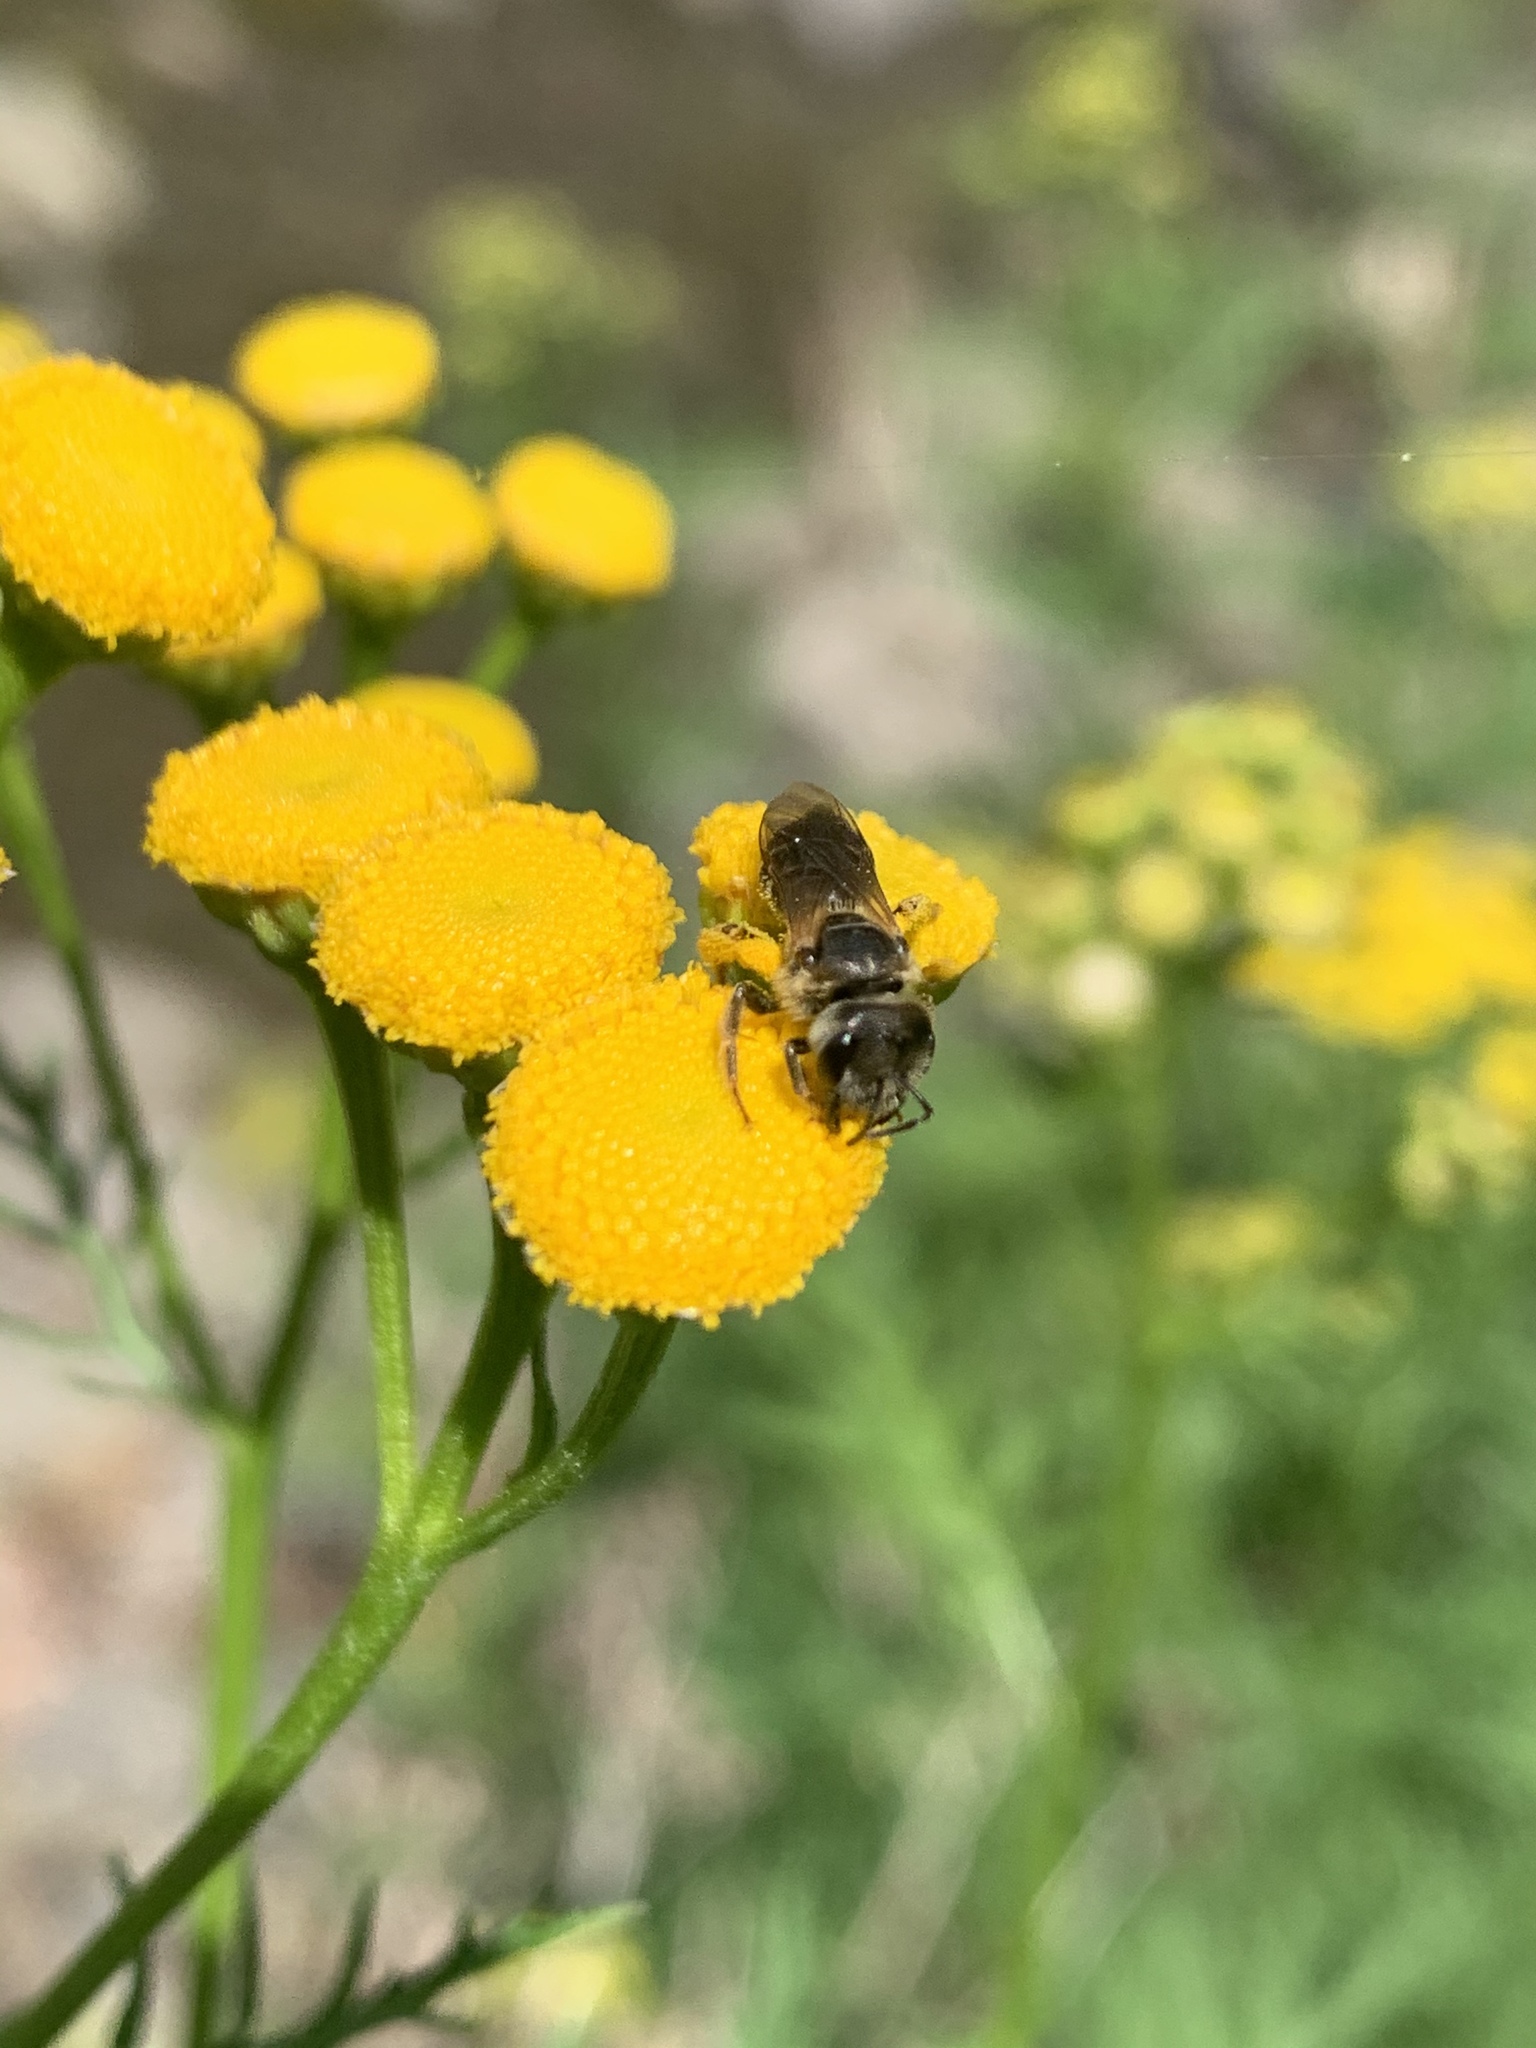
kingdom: Animalia
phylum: Arthropoda
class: Insecta
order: Hymenoptera
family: Halictidae
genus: Halictus
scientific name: Halictus ligatus
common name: Ligated furrow bee
